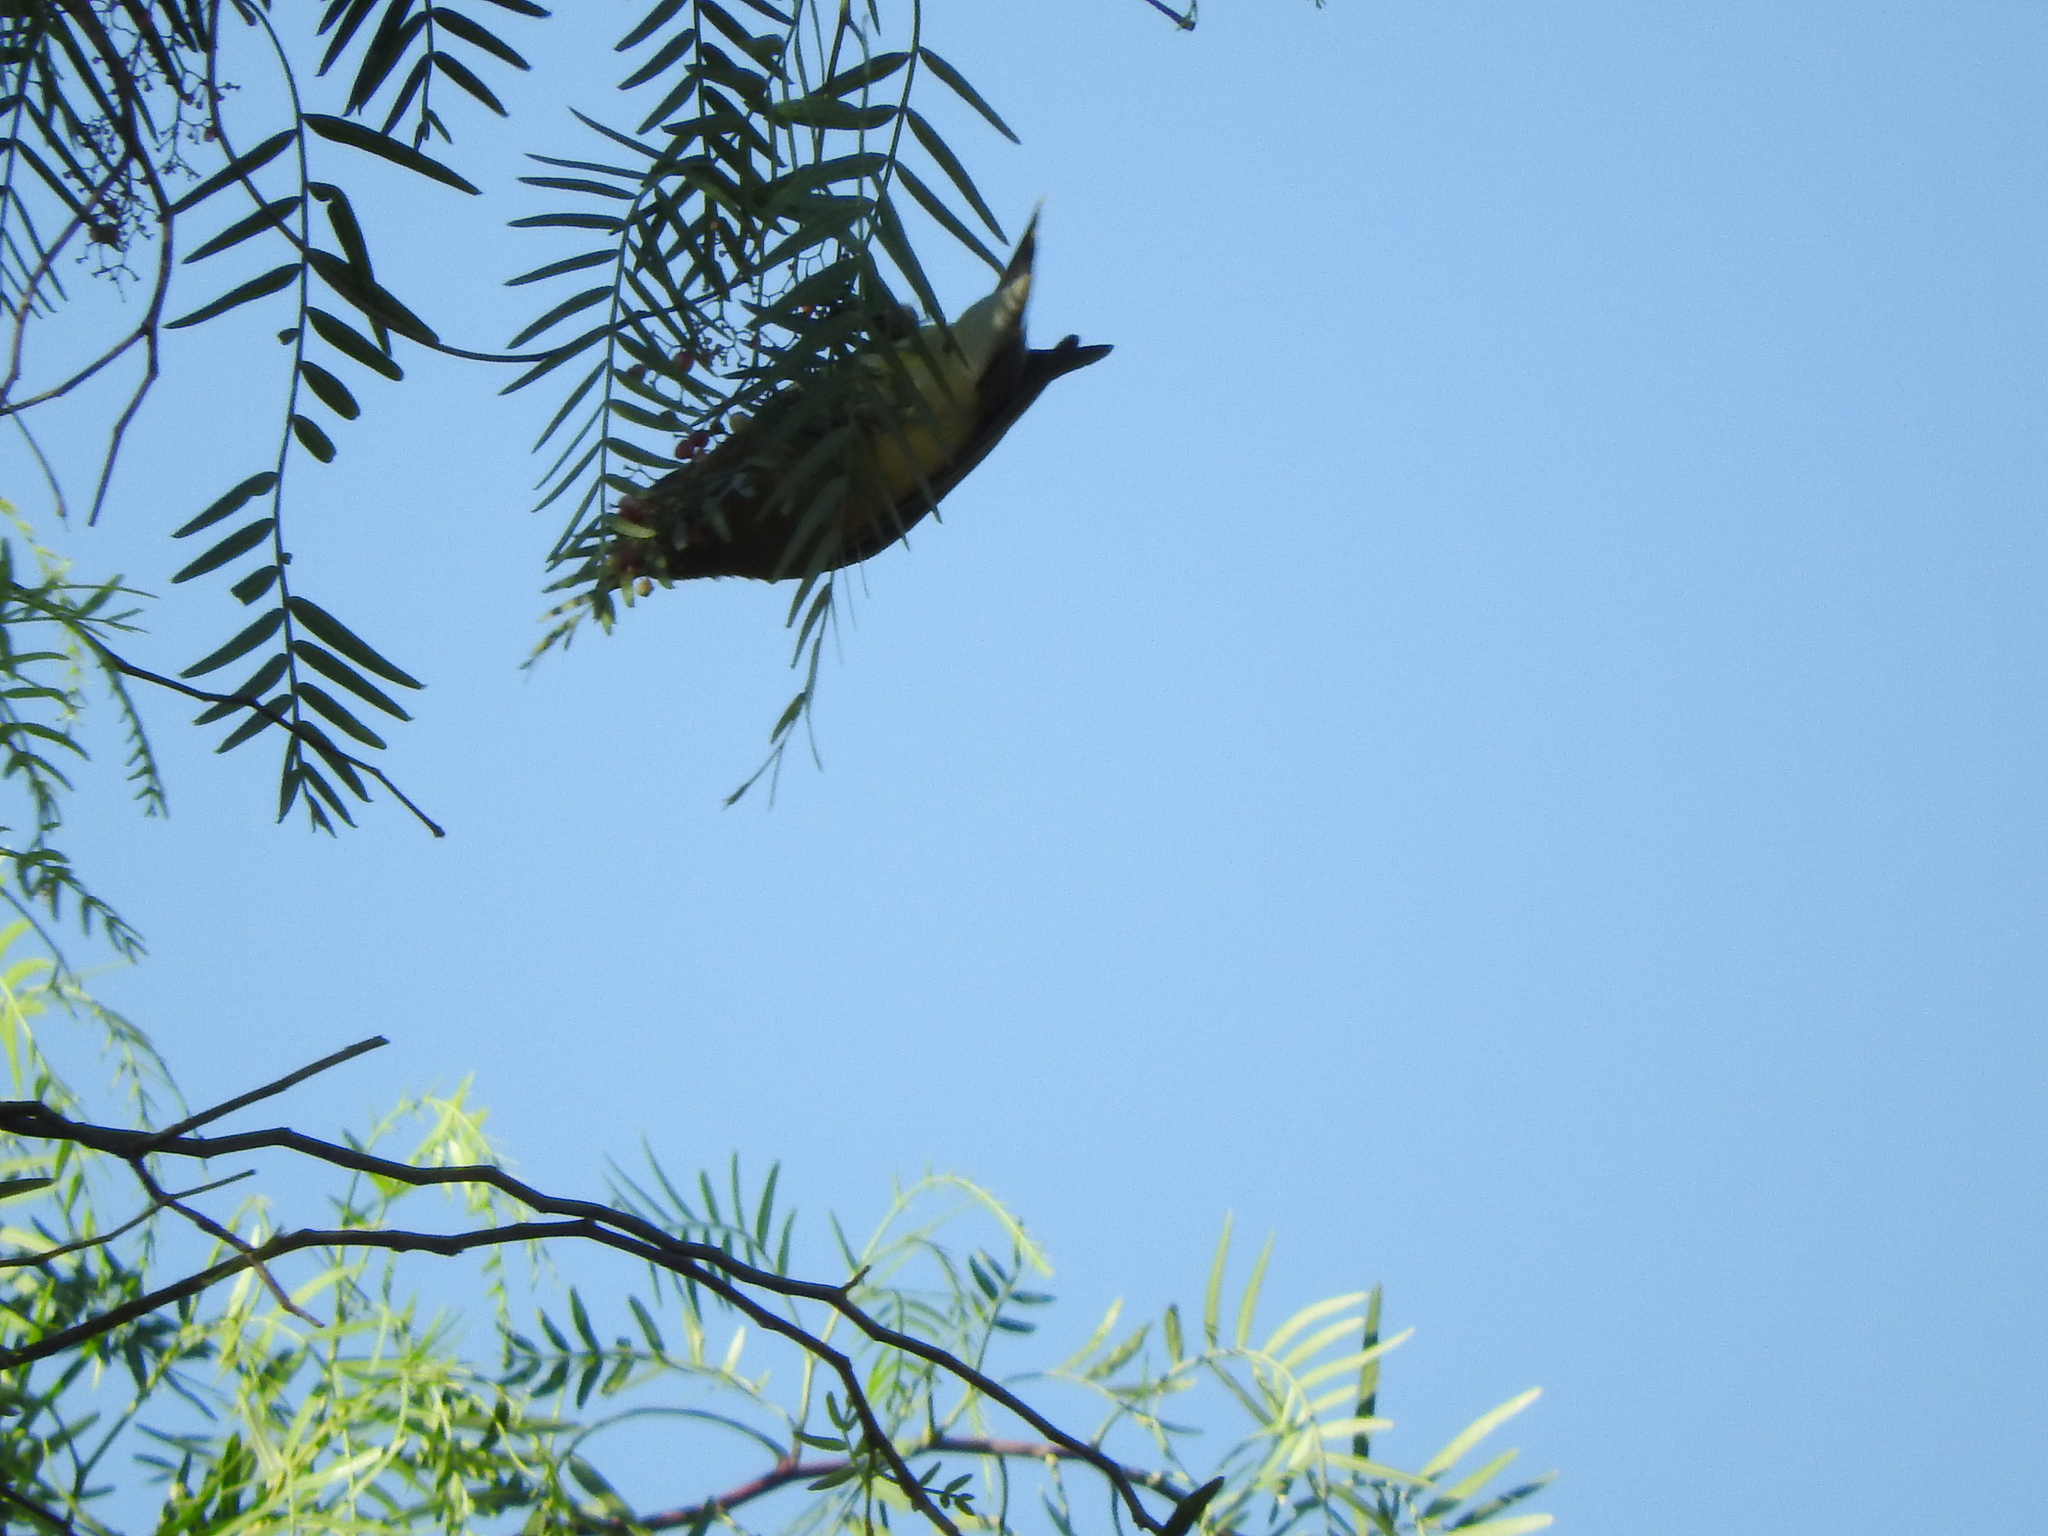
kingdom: Animalia
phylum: Chordata
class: Aves
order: Passeriformes
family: Bombycillidae
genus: Bombycilla
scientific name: Bombycilla cedrorum
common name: Cedar waxwing
